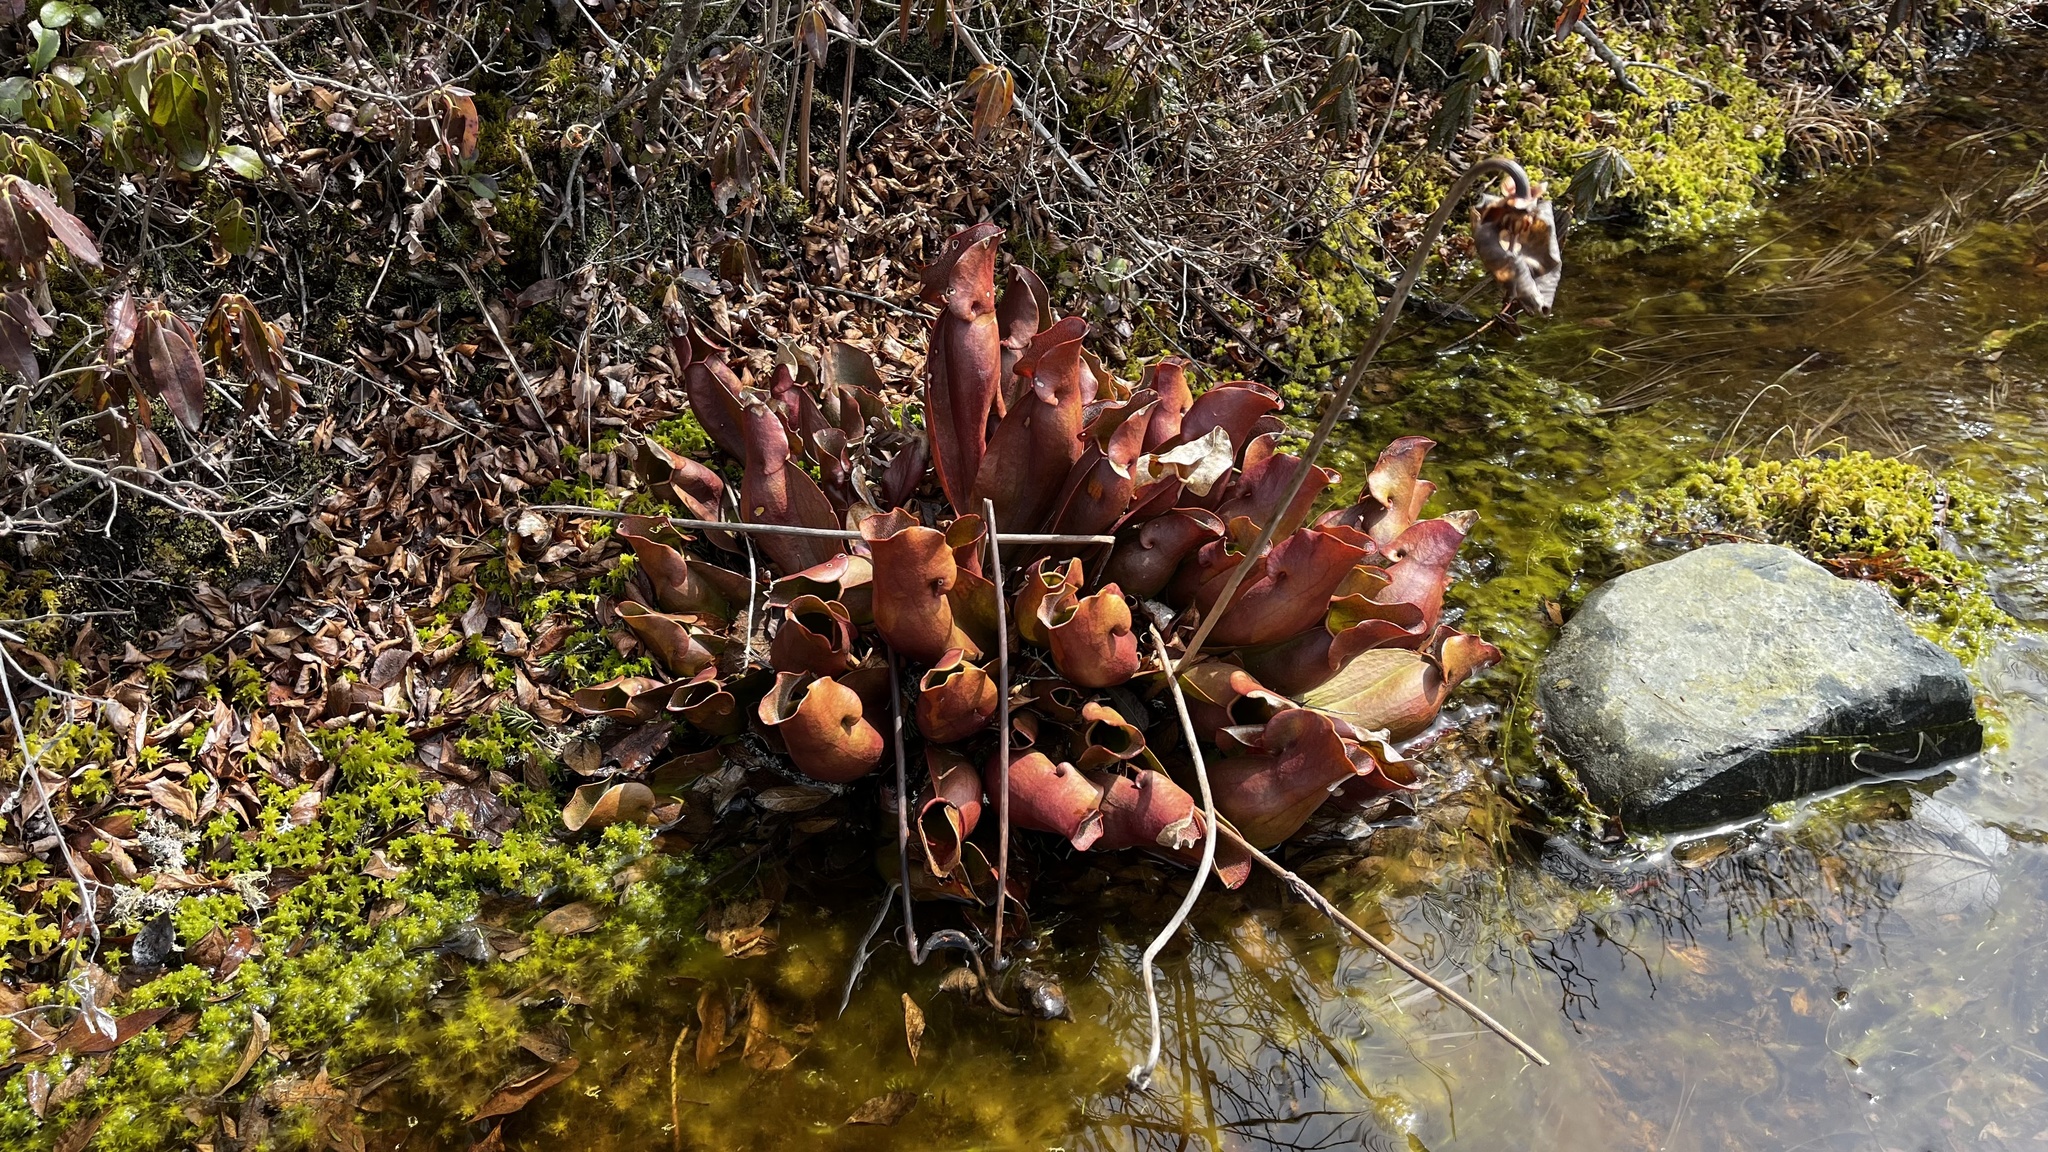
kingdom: Plantae
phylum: Tracheophyta
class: Magnoliopsida
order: Ericales
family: Sarraceniaceae
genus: Sarracenia
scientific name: Sarracenia purpurea
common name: Pitcherplant
